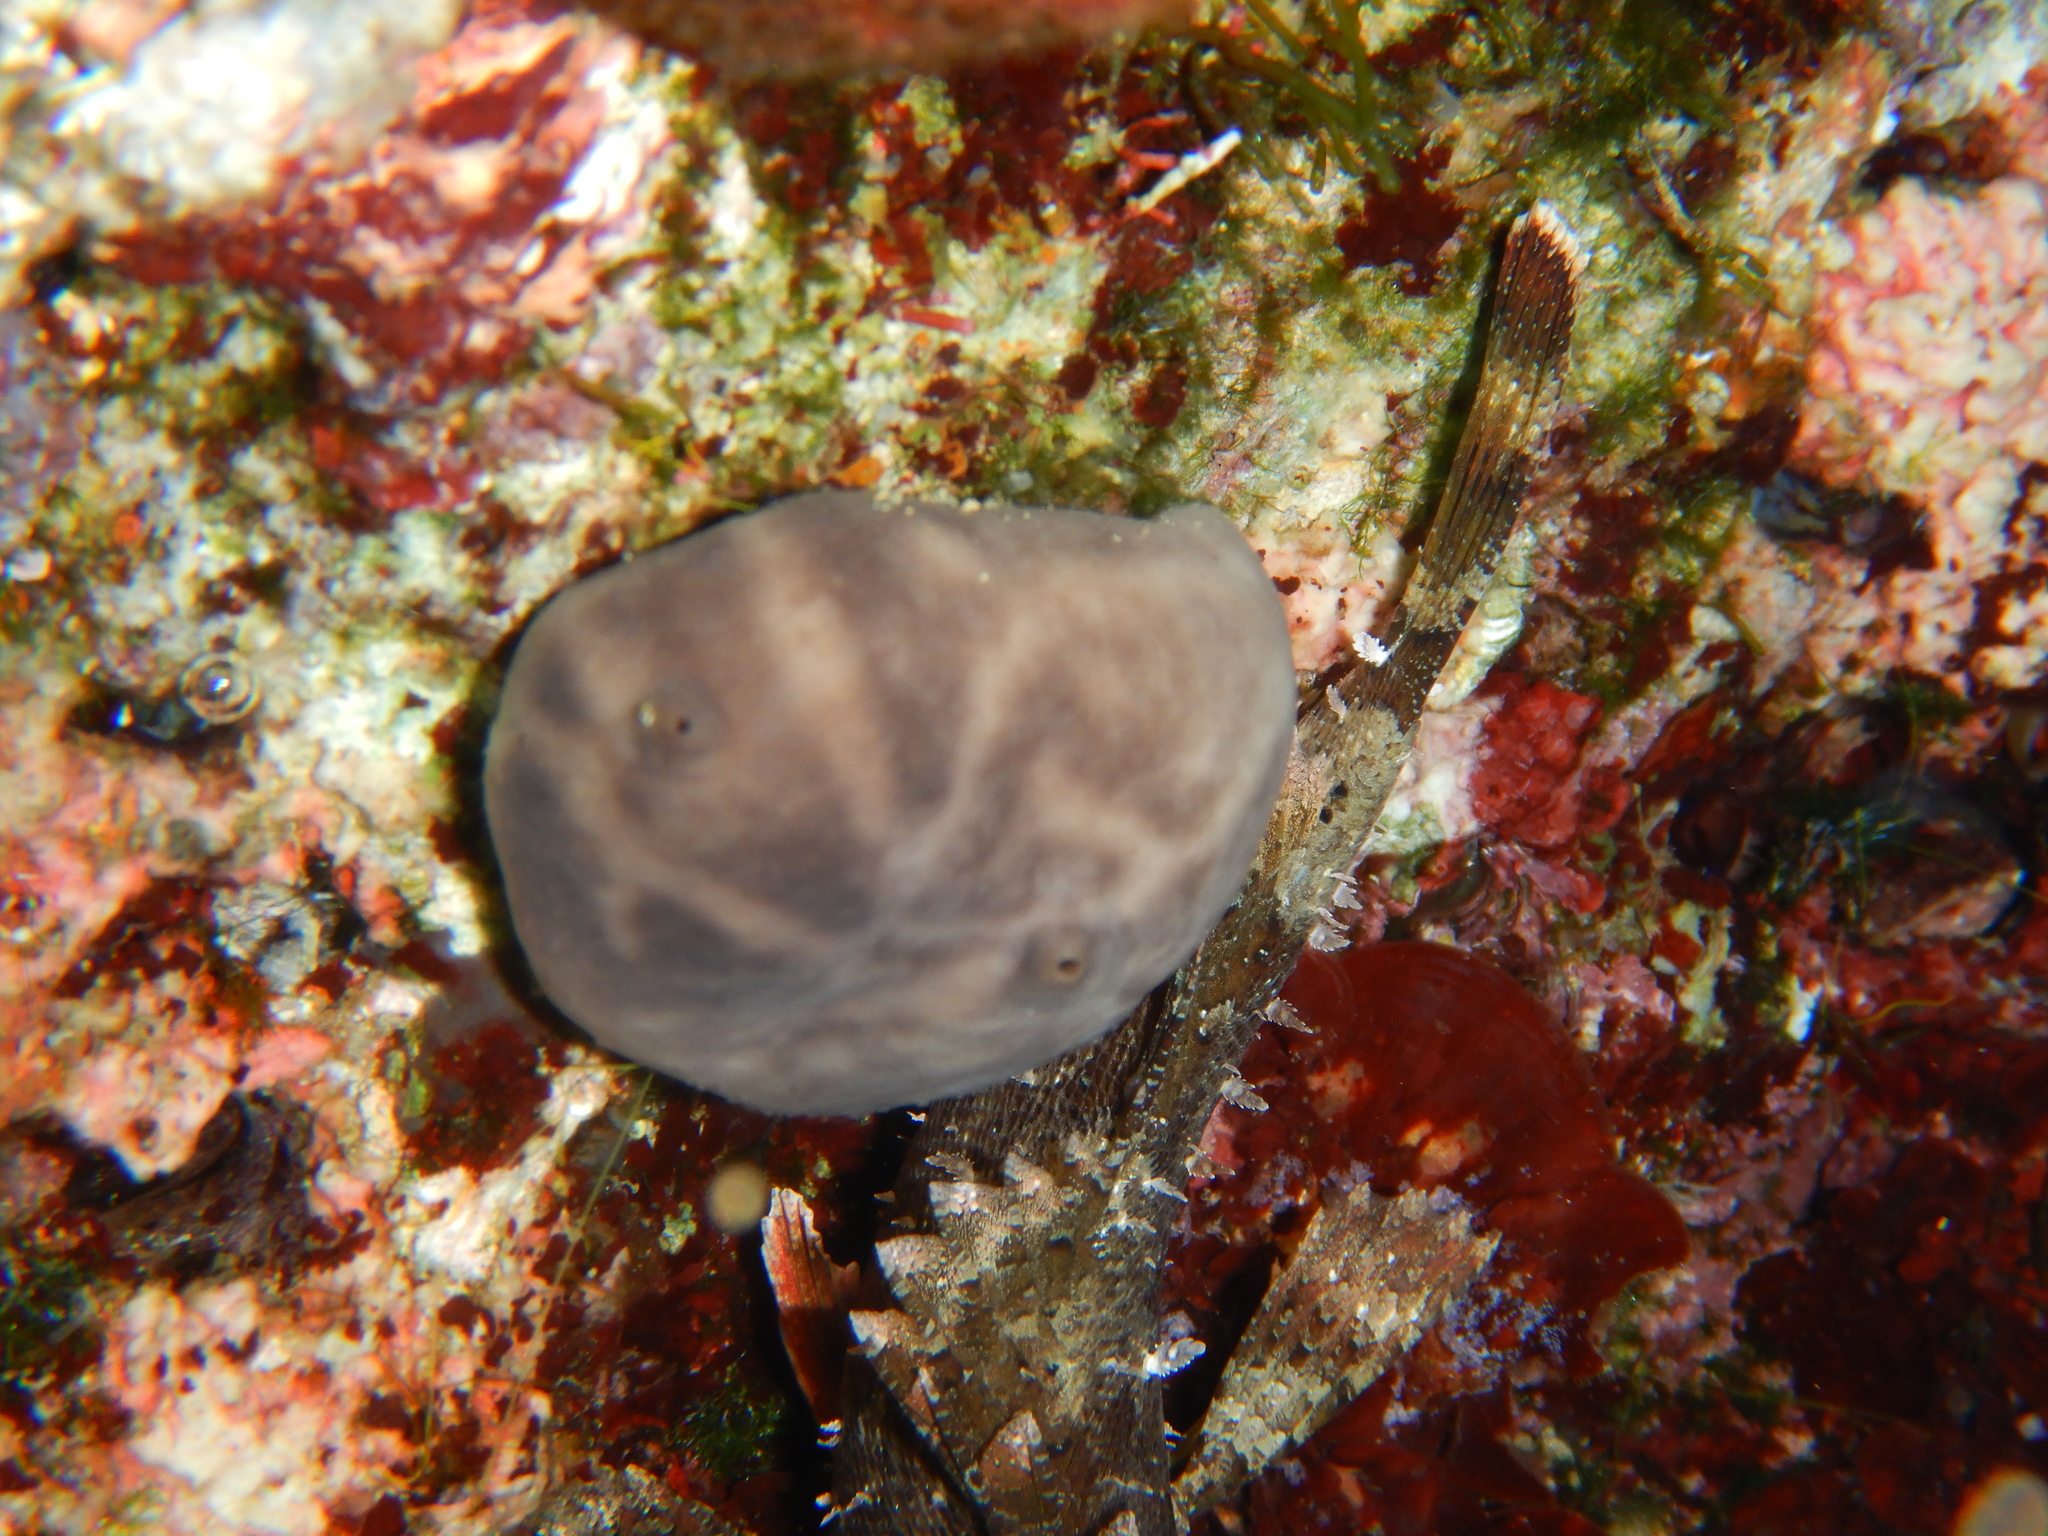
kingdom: Animalia
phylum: Chordata
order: Scorpaeniformes
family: Scorpaenidae
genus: Scorpaena
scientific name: Scorpaena porcus
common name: Black scorpionfish
